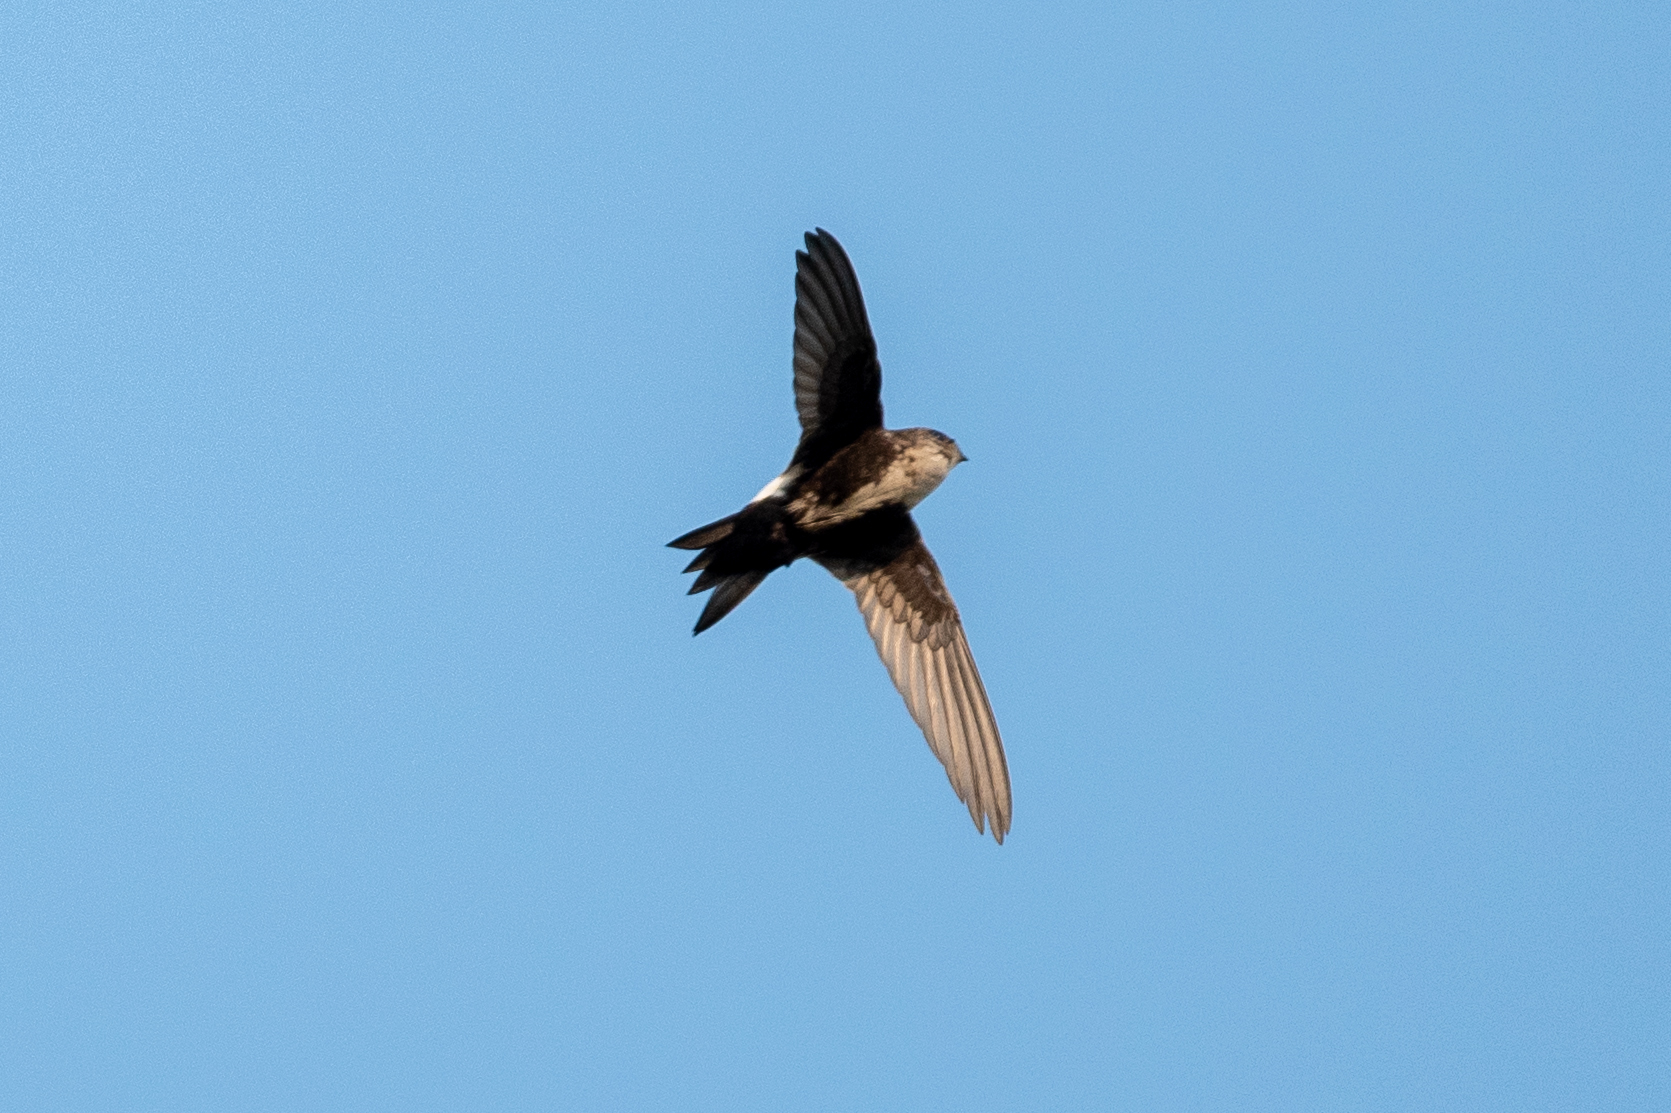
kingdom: Animalia
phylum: Chordata
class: Aves
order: Apodiformes
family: Apodidae
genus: Aeronautes
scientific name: Aeronautes saxatalis
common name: White-throated swift
